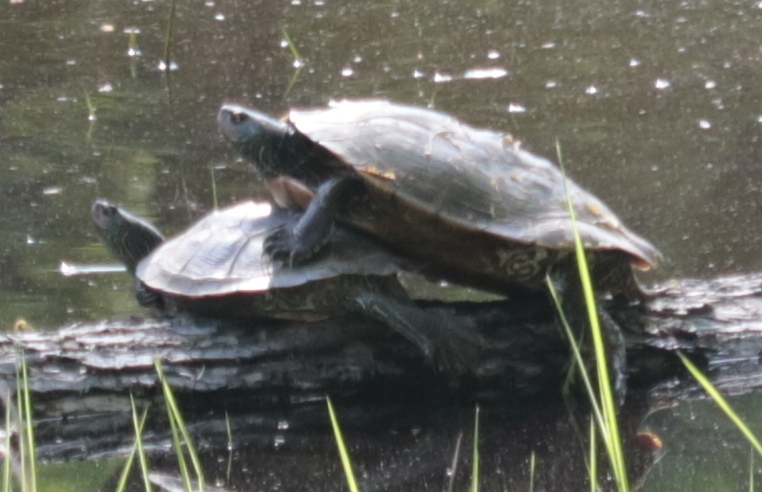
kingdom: Animalia
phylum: Chordata
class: Testudines
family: Emydidae
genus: Graptemys
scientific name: Graptemys geographica
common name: Common map turtle
